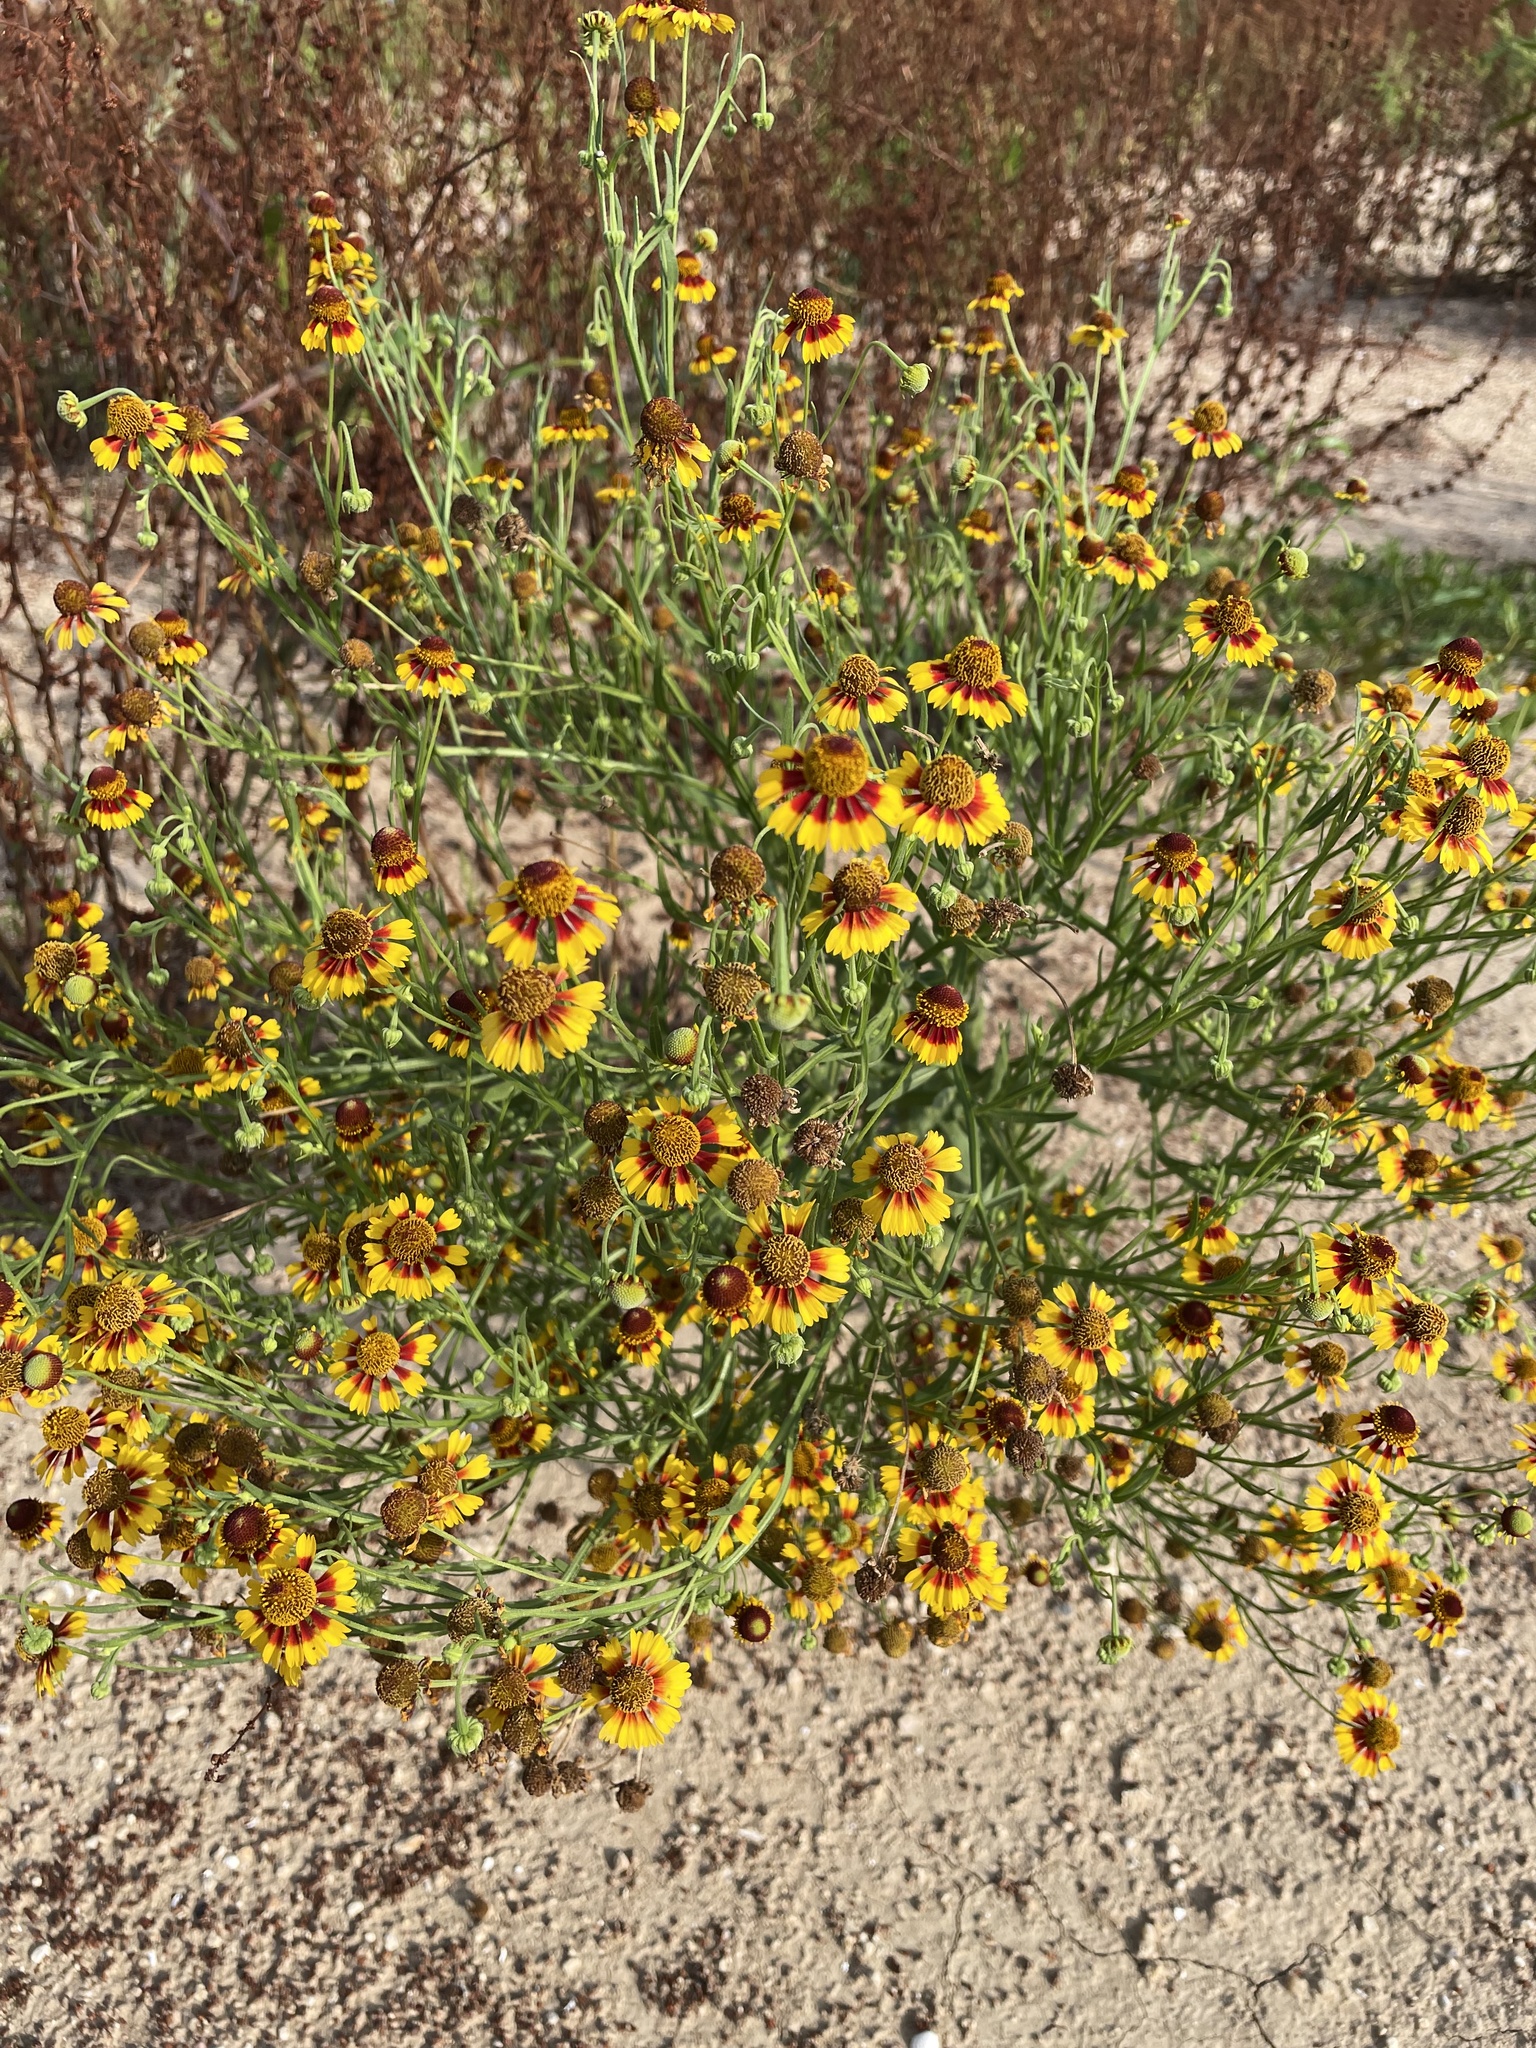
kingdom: Plantae
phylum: Tracheophyta
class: Magnoliopsida
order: Asterales
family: Asteraceae
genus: Helenium
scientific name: Helenium elegans
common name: Pretty sneezeweed
